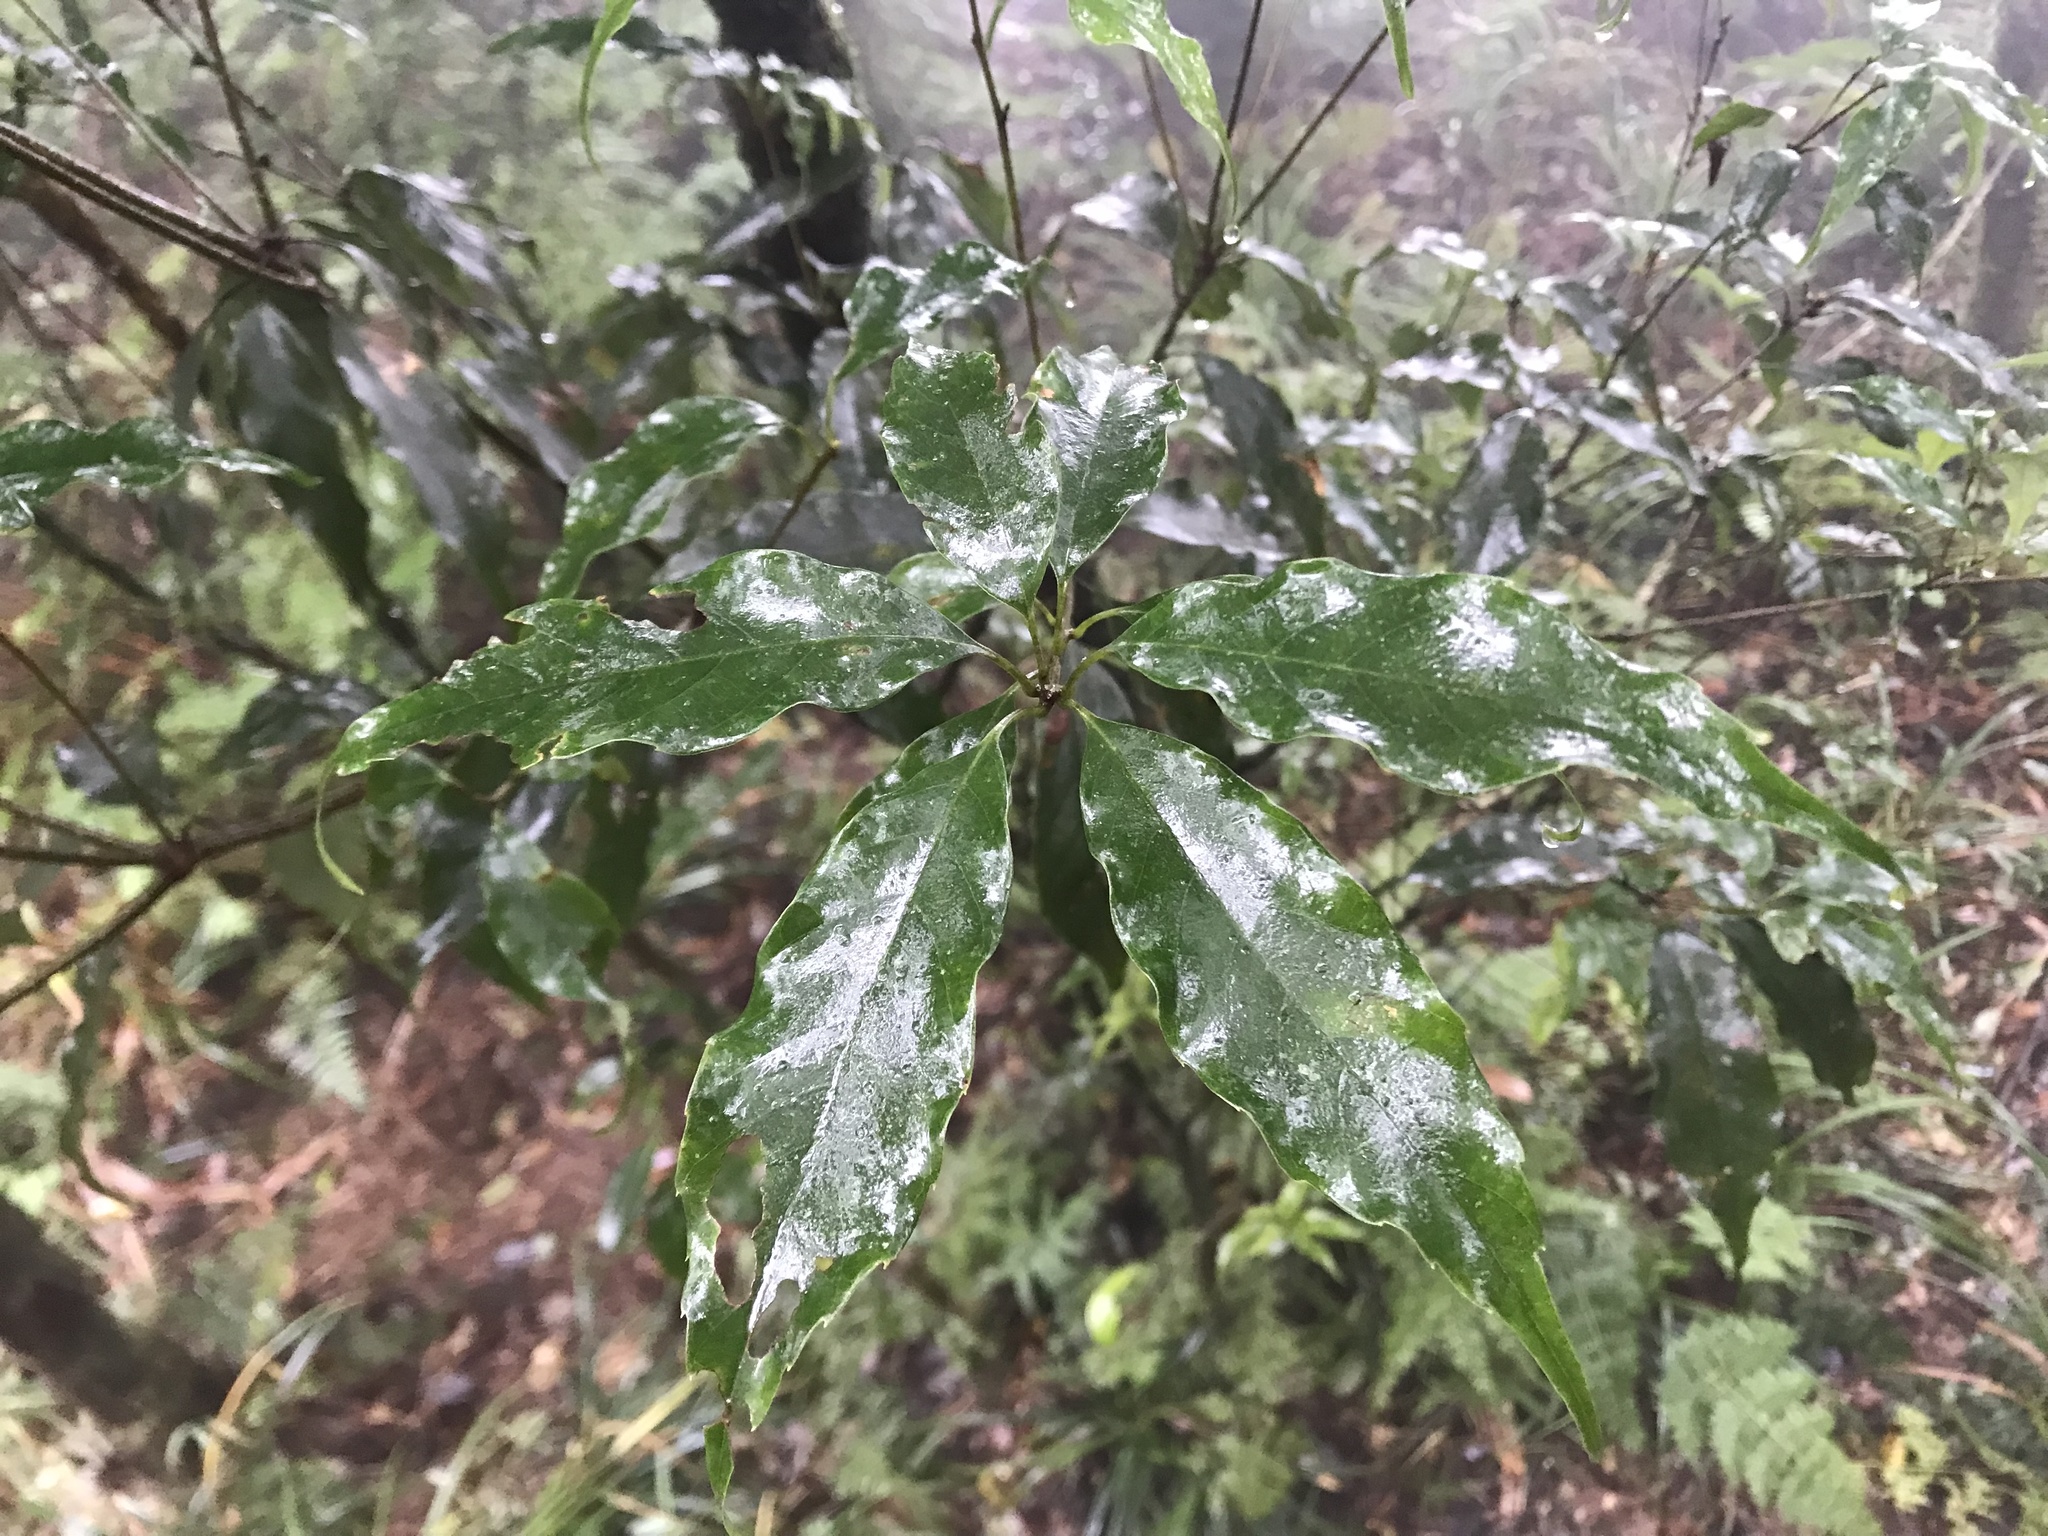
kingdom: Plantae
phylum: Tracheophyta
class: Magnoliopsida
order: Fagales
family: Fagaceae
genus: Quercus
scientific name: Quercus longinux
